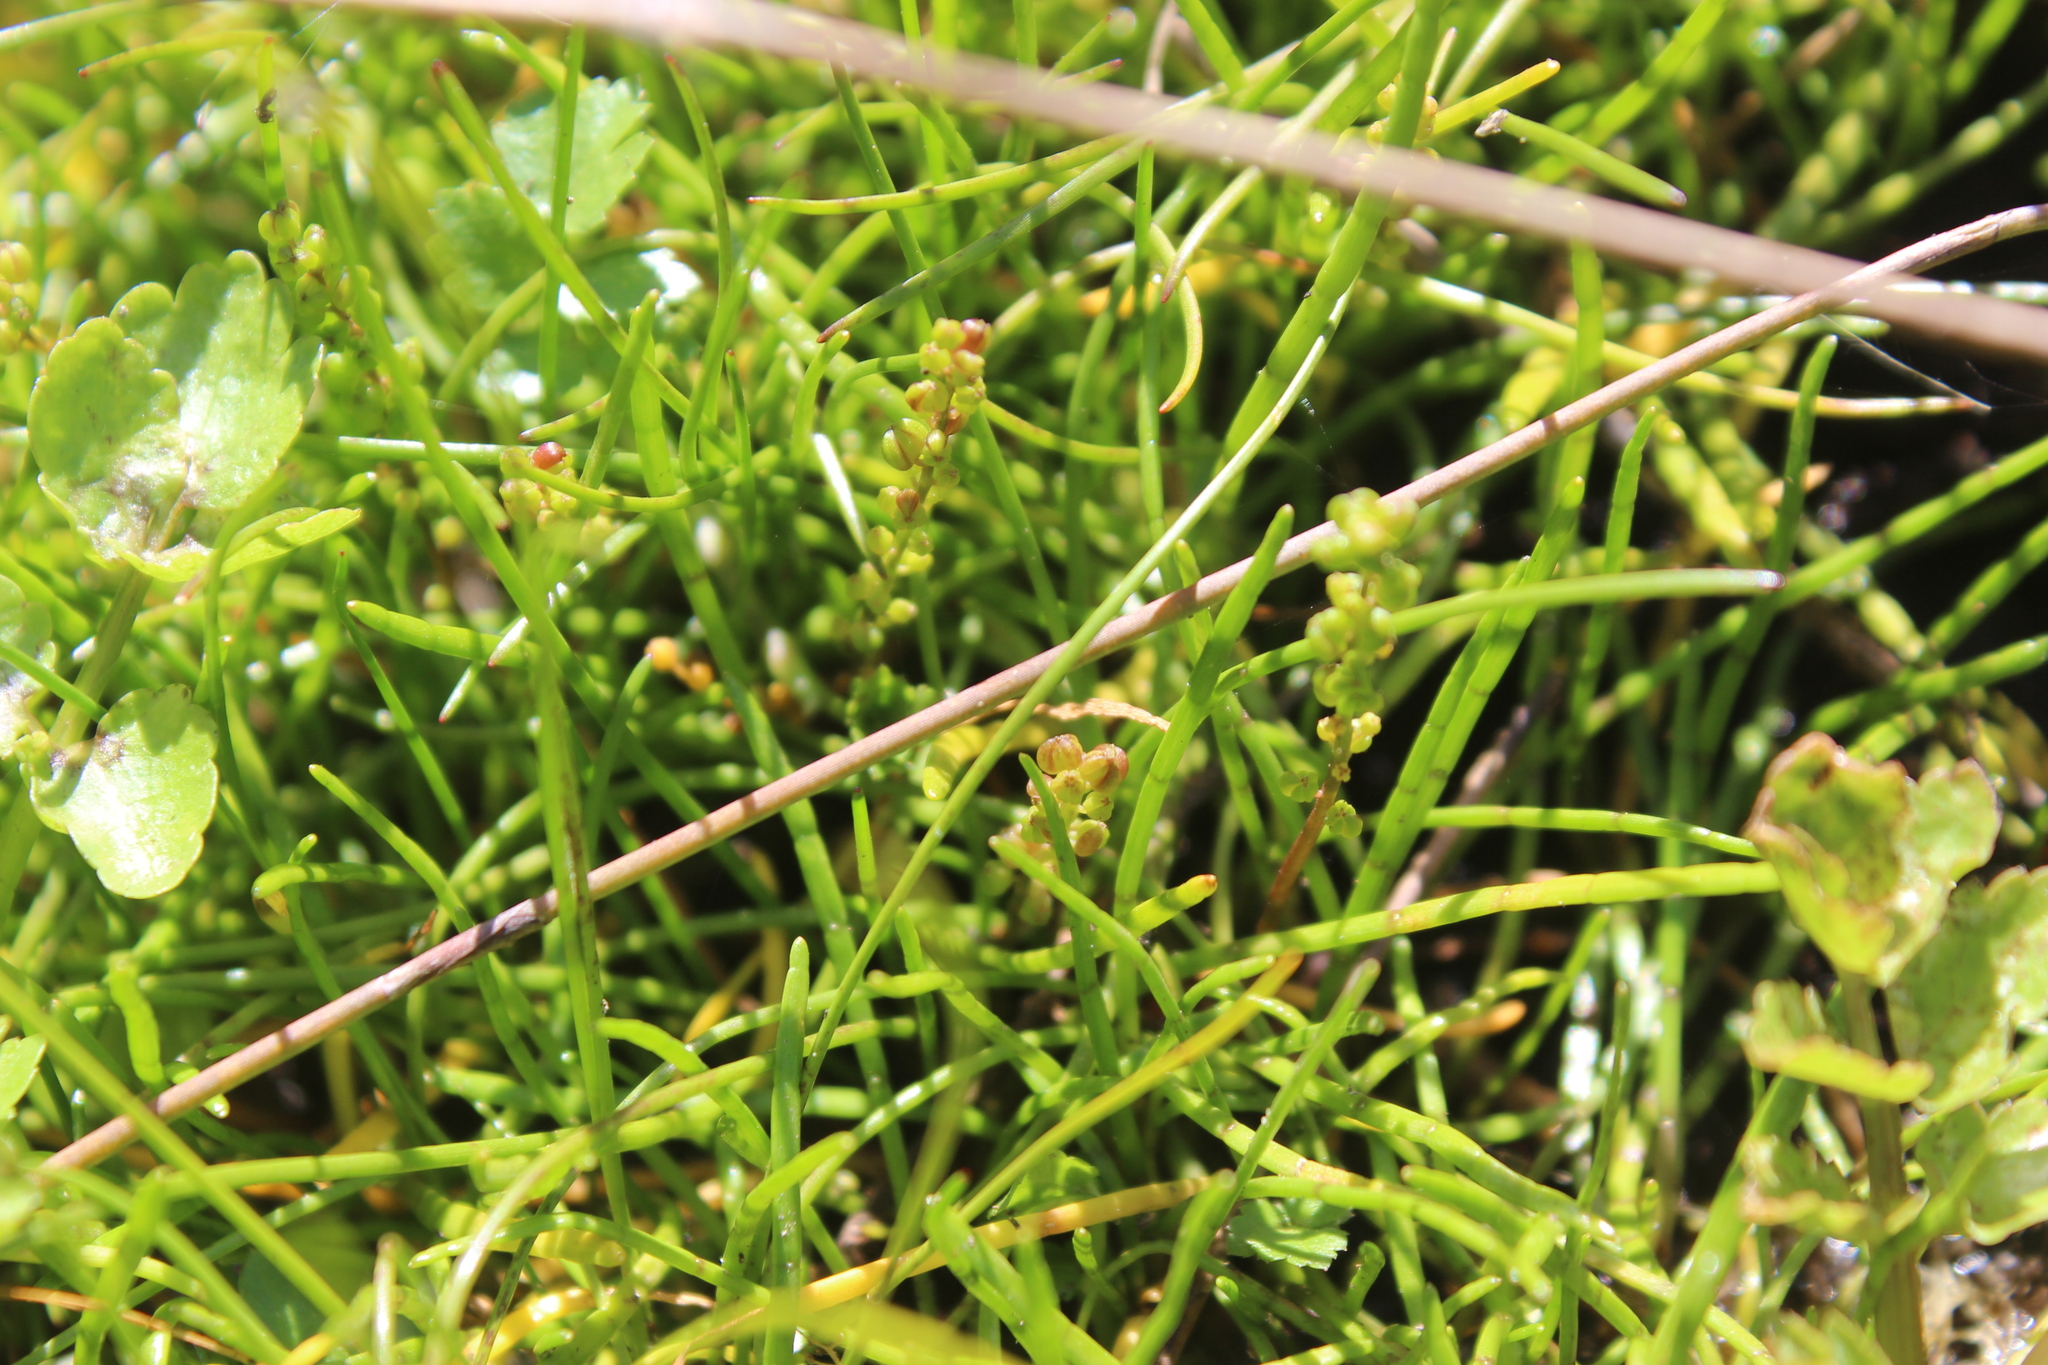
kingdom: Plantae
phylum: Tracheophyta
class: Liliopsida
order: Alismatales
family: Juncaginaceae
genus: Triglochin
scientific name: Triglochin striata
